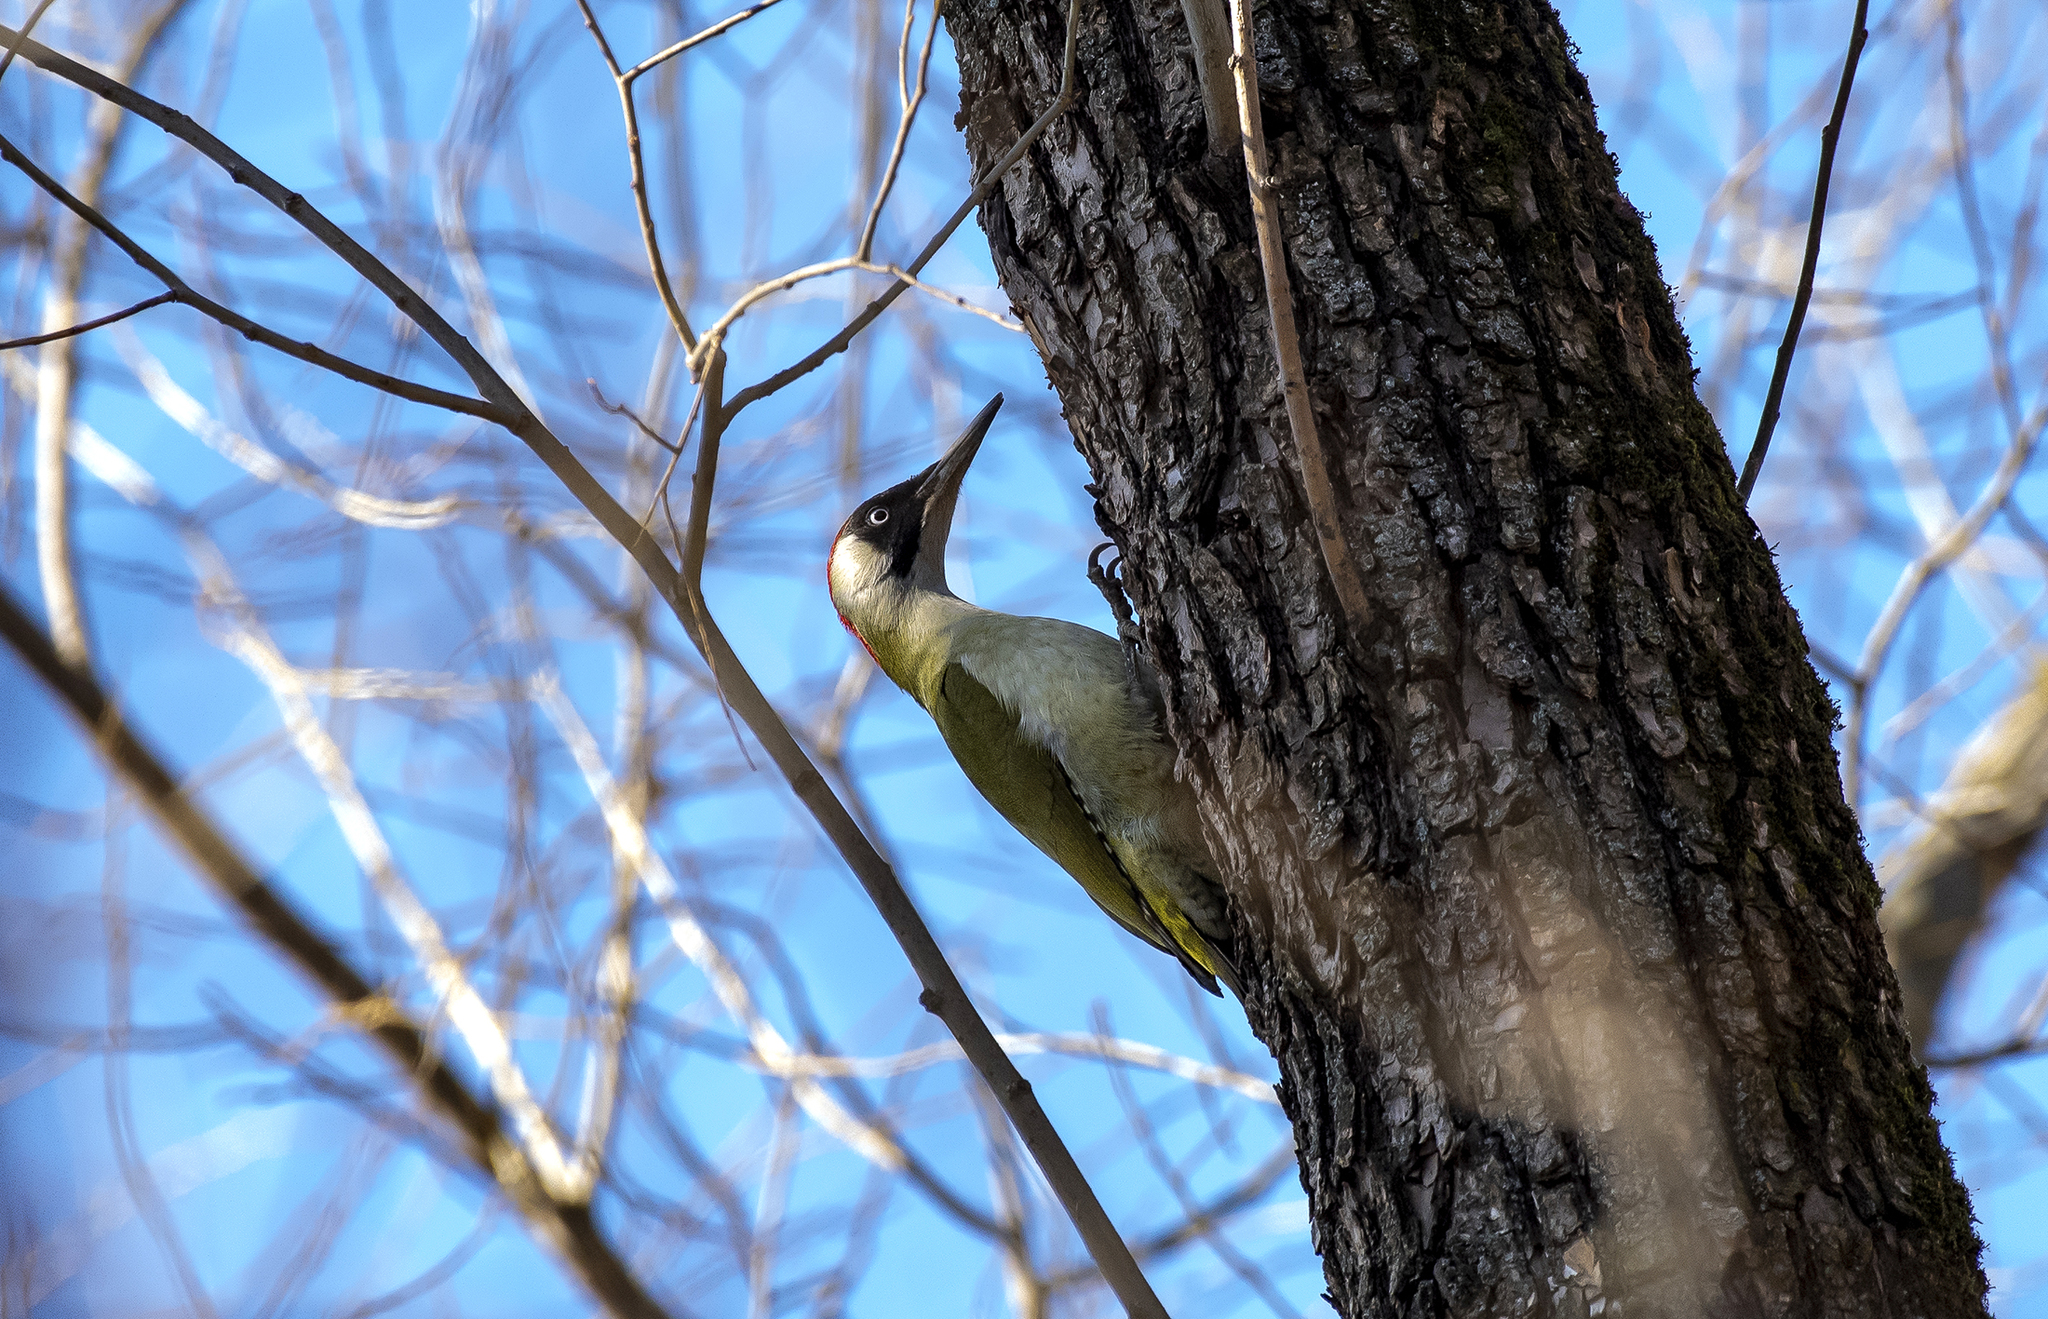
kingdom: Animalia
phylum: Chordata
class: Aves
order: Piciformes
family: Picidae
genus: Picus
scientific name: Picus viridis
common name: European green woodpecker
